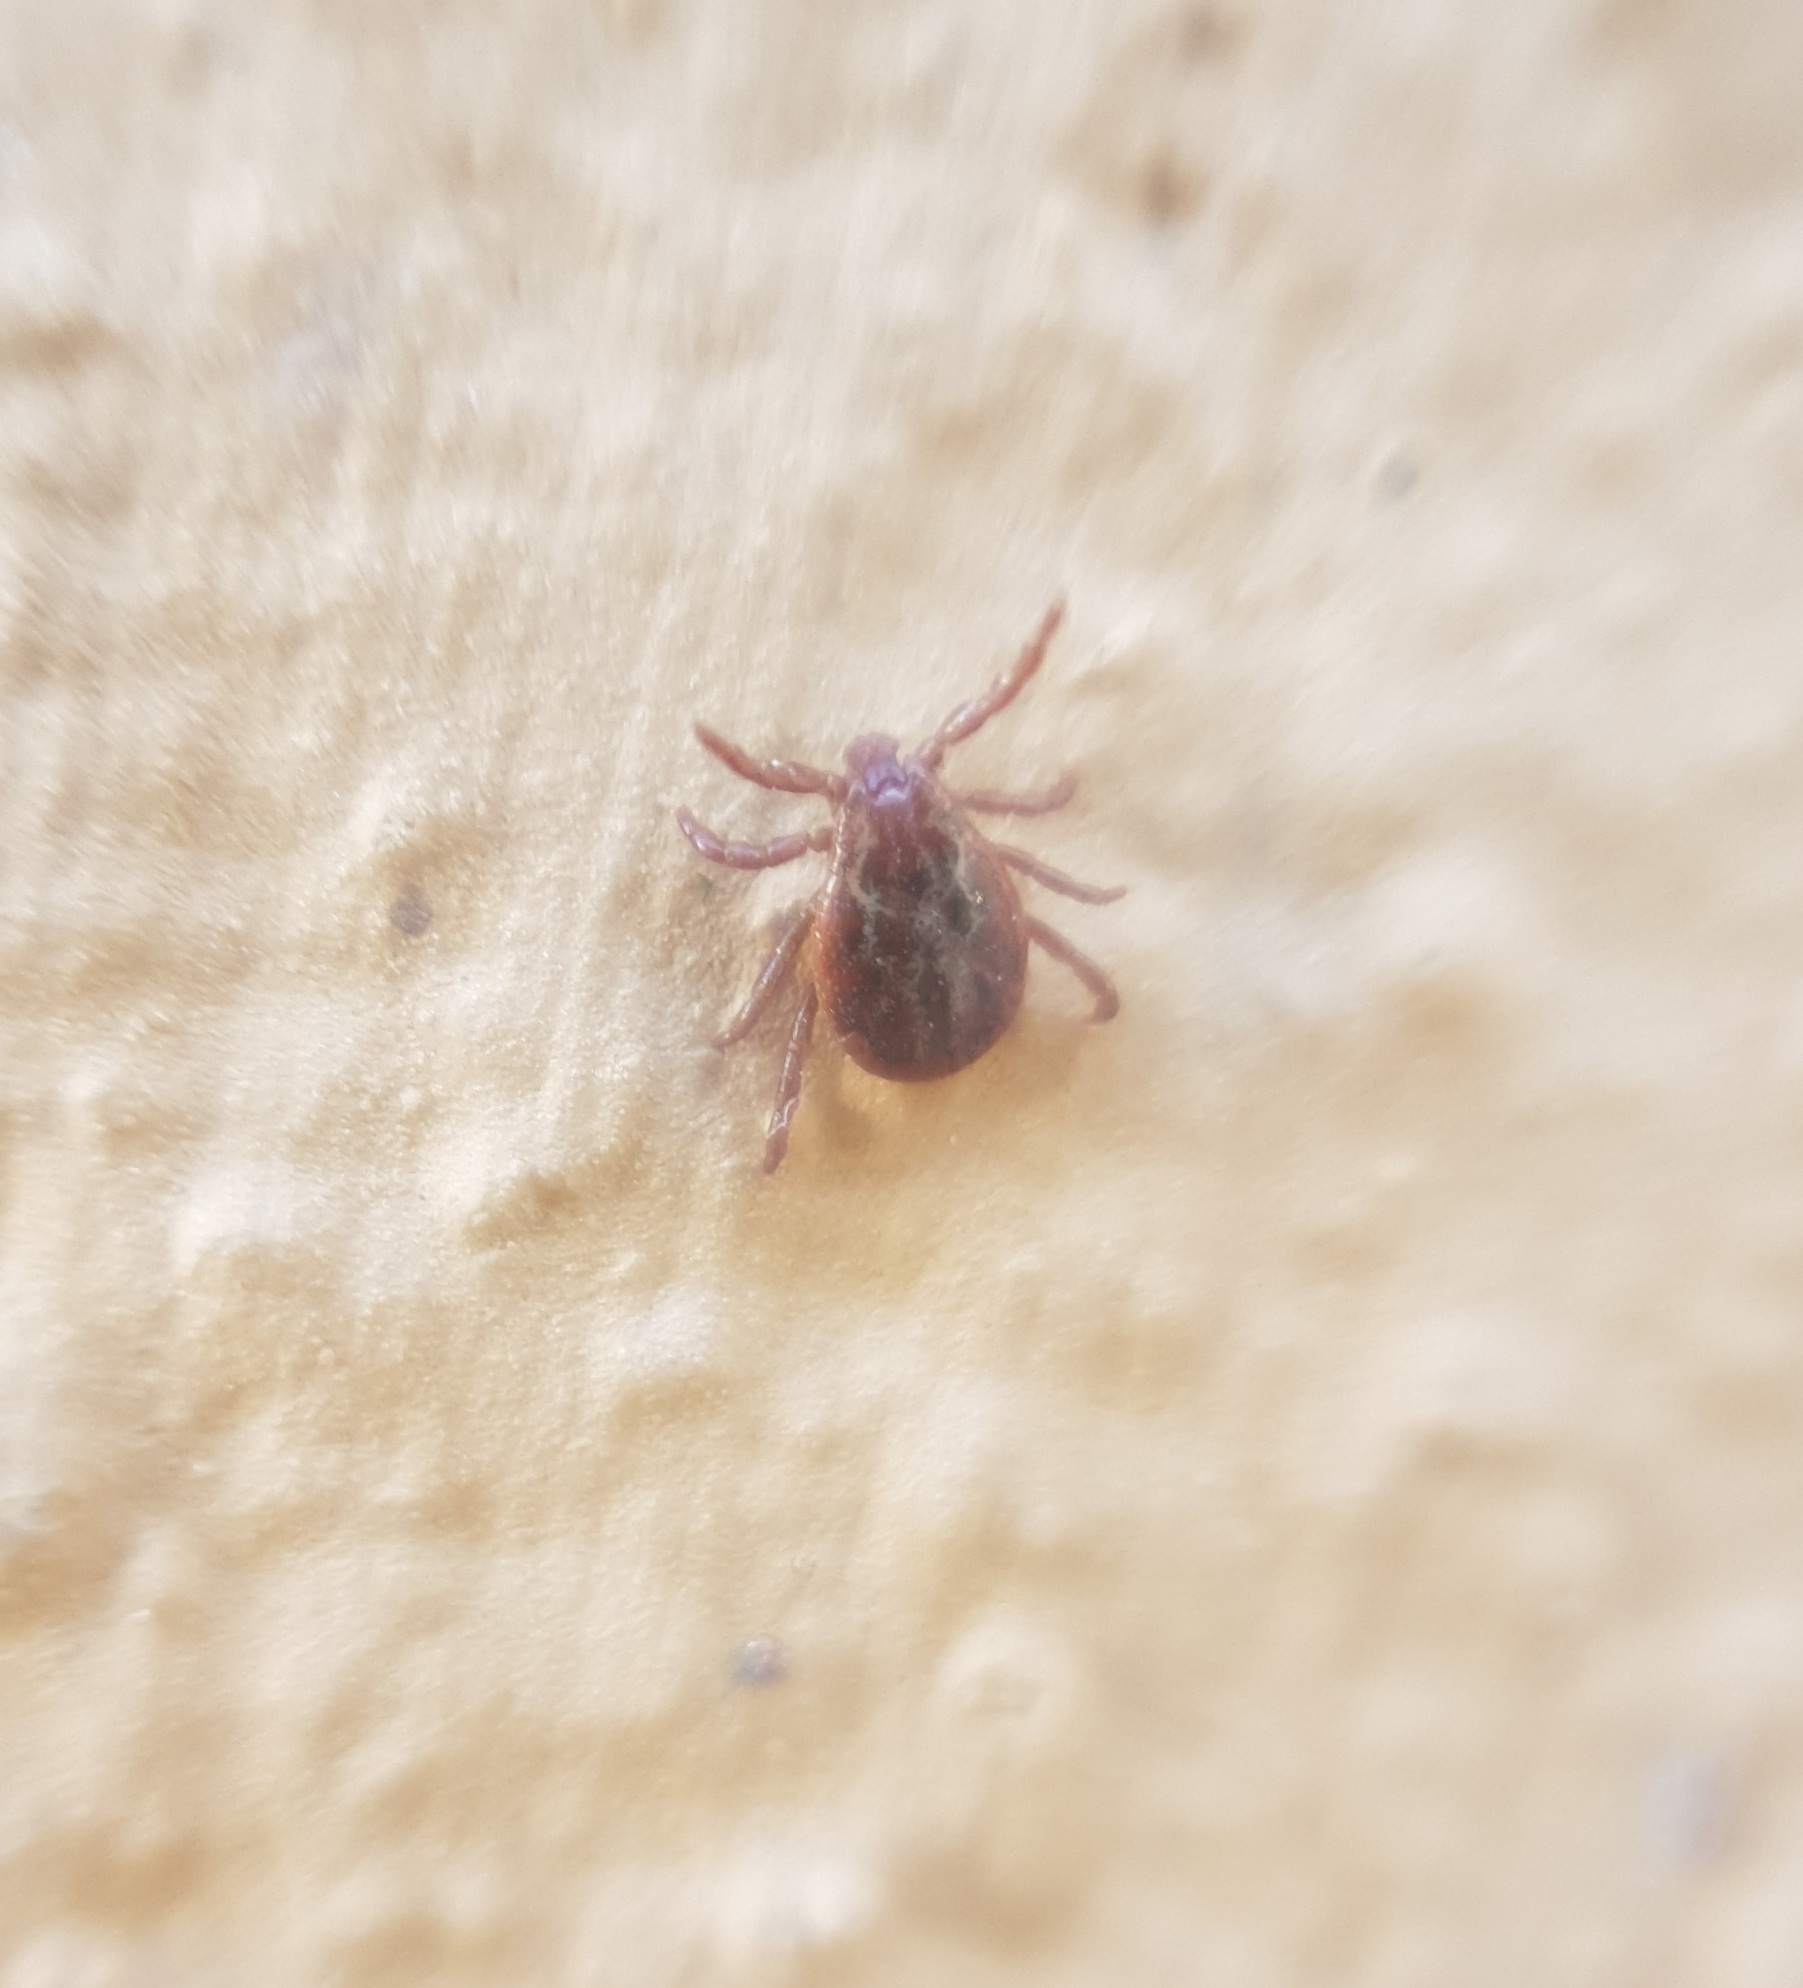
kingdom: Animalia
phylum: Arthropoda
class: Arachnida
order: Ixodida
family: Ixodidae
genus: Dermacentor
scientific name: Dermacentor reticulatus
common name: Ornate cow tick
